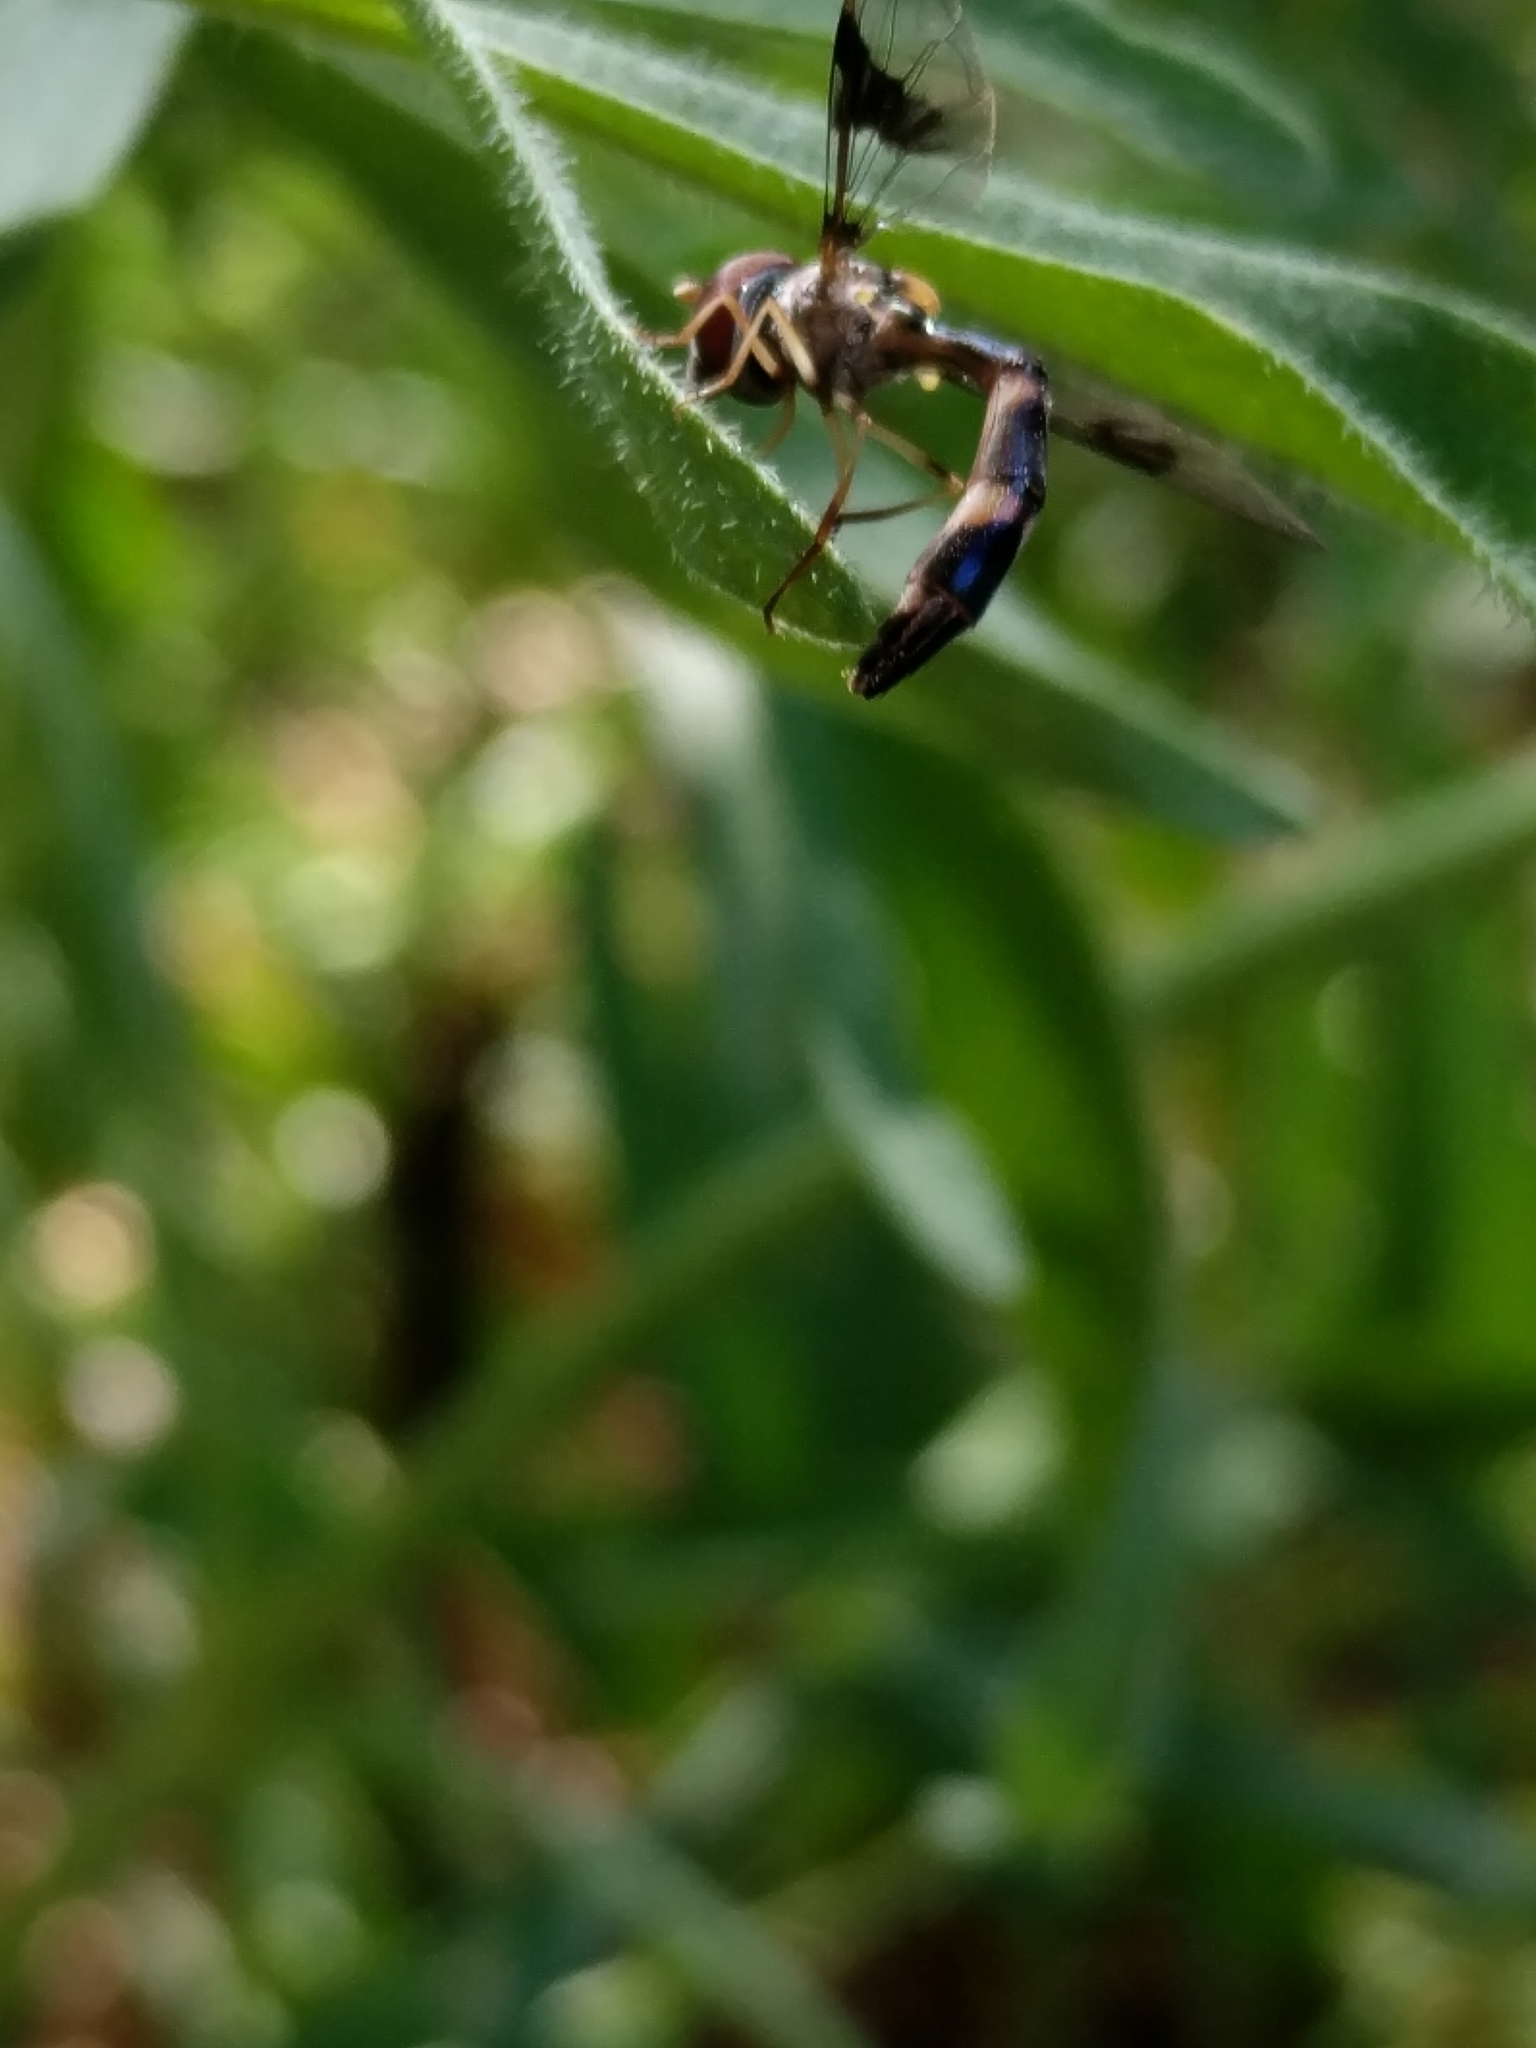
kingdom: Animalia
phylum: Arthropoda
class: Insecta
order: Diptera
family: Syrphidae
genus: Hypocritanus
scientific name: Hypocritanus fascipennis
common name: Eastern band-winged hover fly
